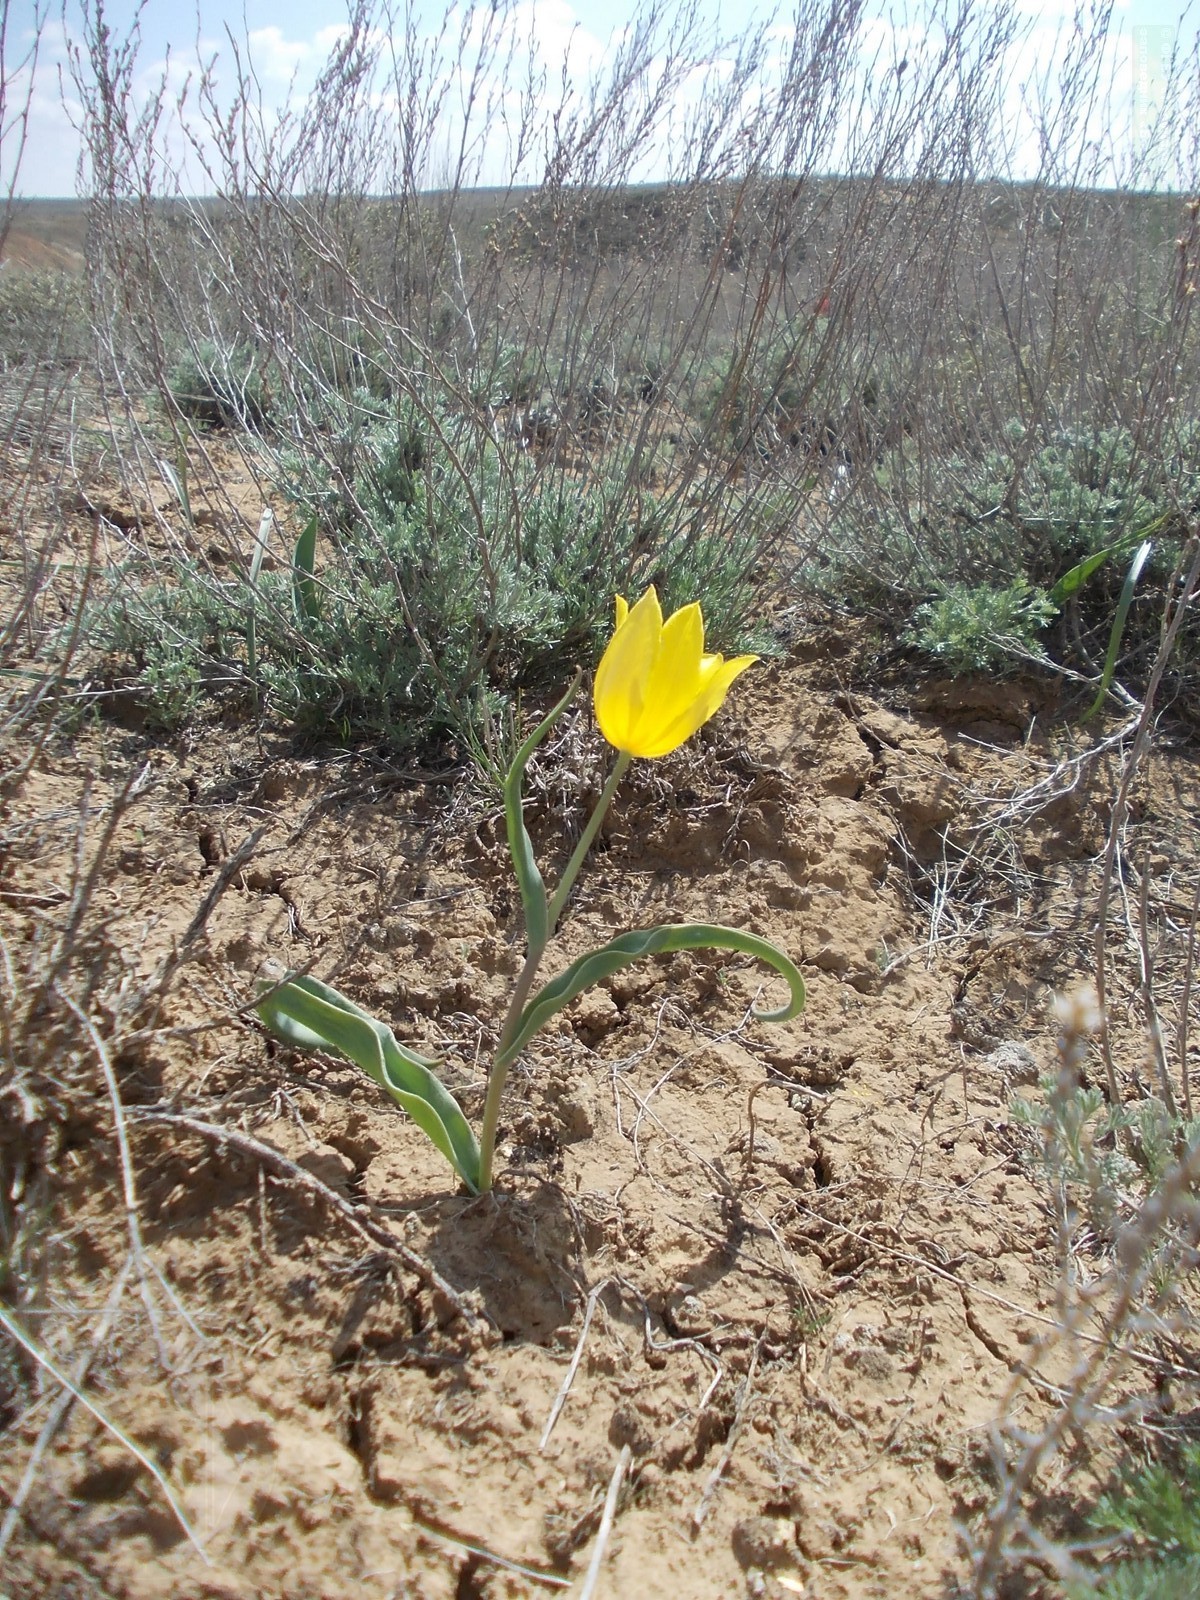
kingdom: Plantae
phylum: Tracheophyta
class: Liliopsida
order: Liliales
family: Liliaceae
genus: Tulipa
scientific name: Tulipa suaveolens
